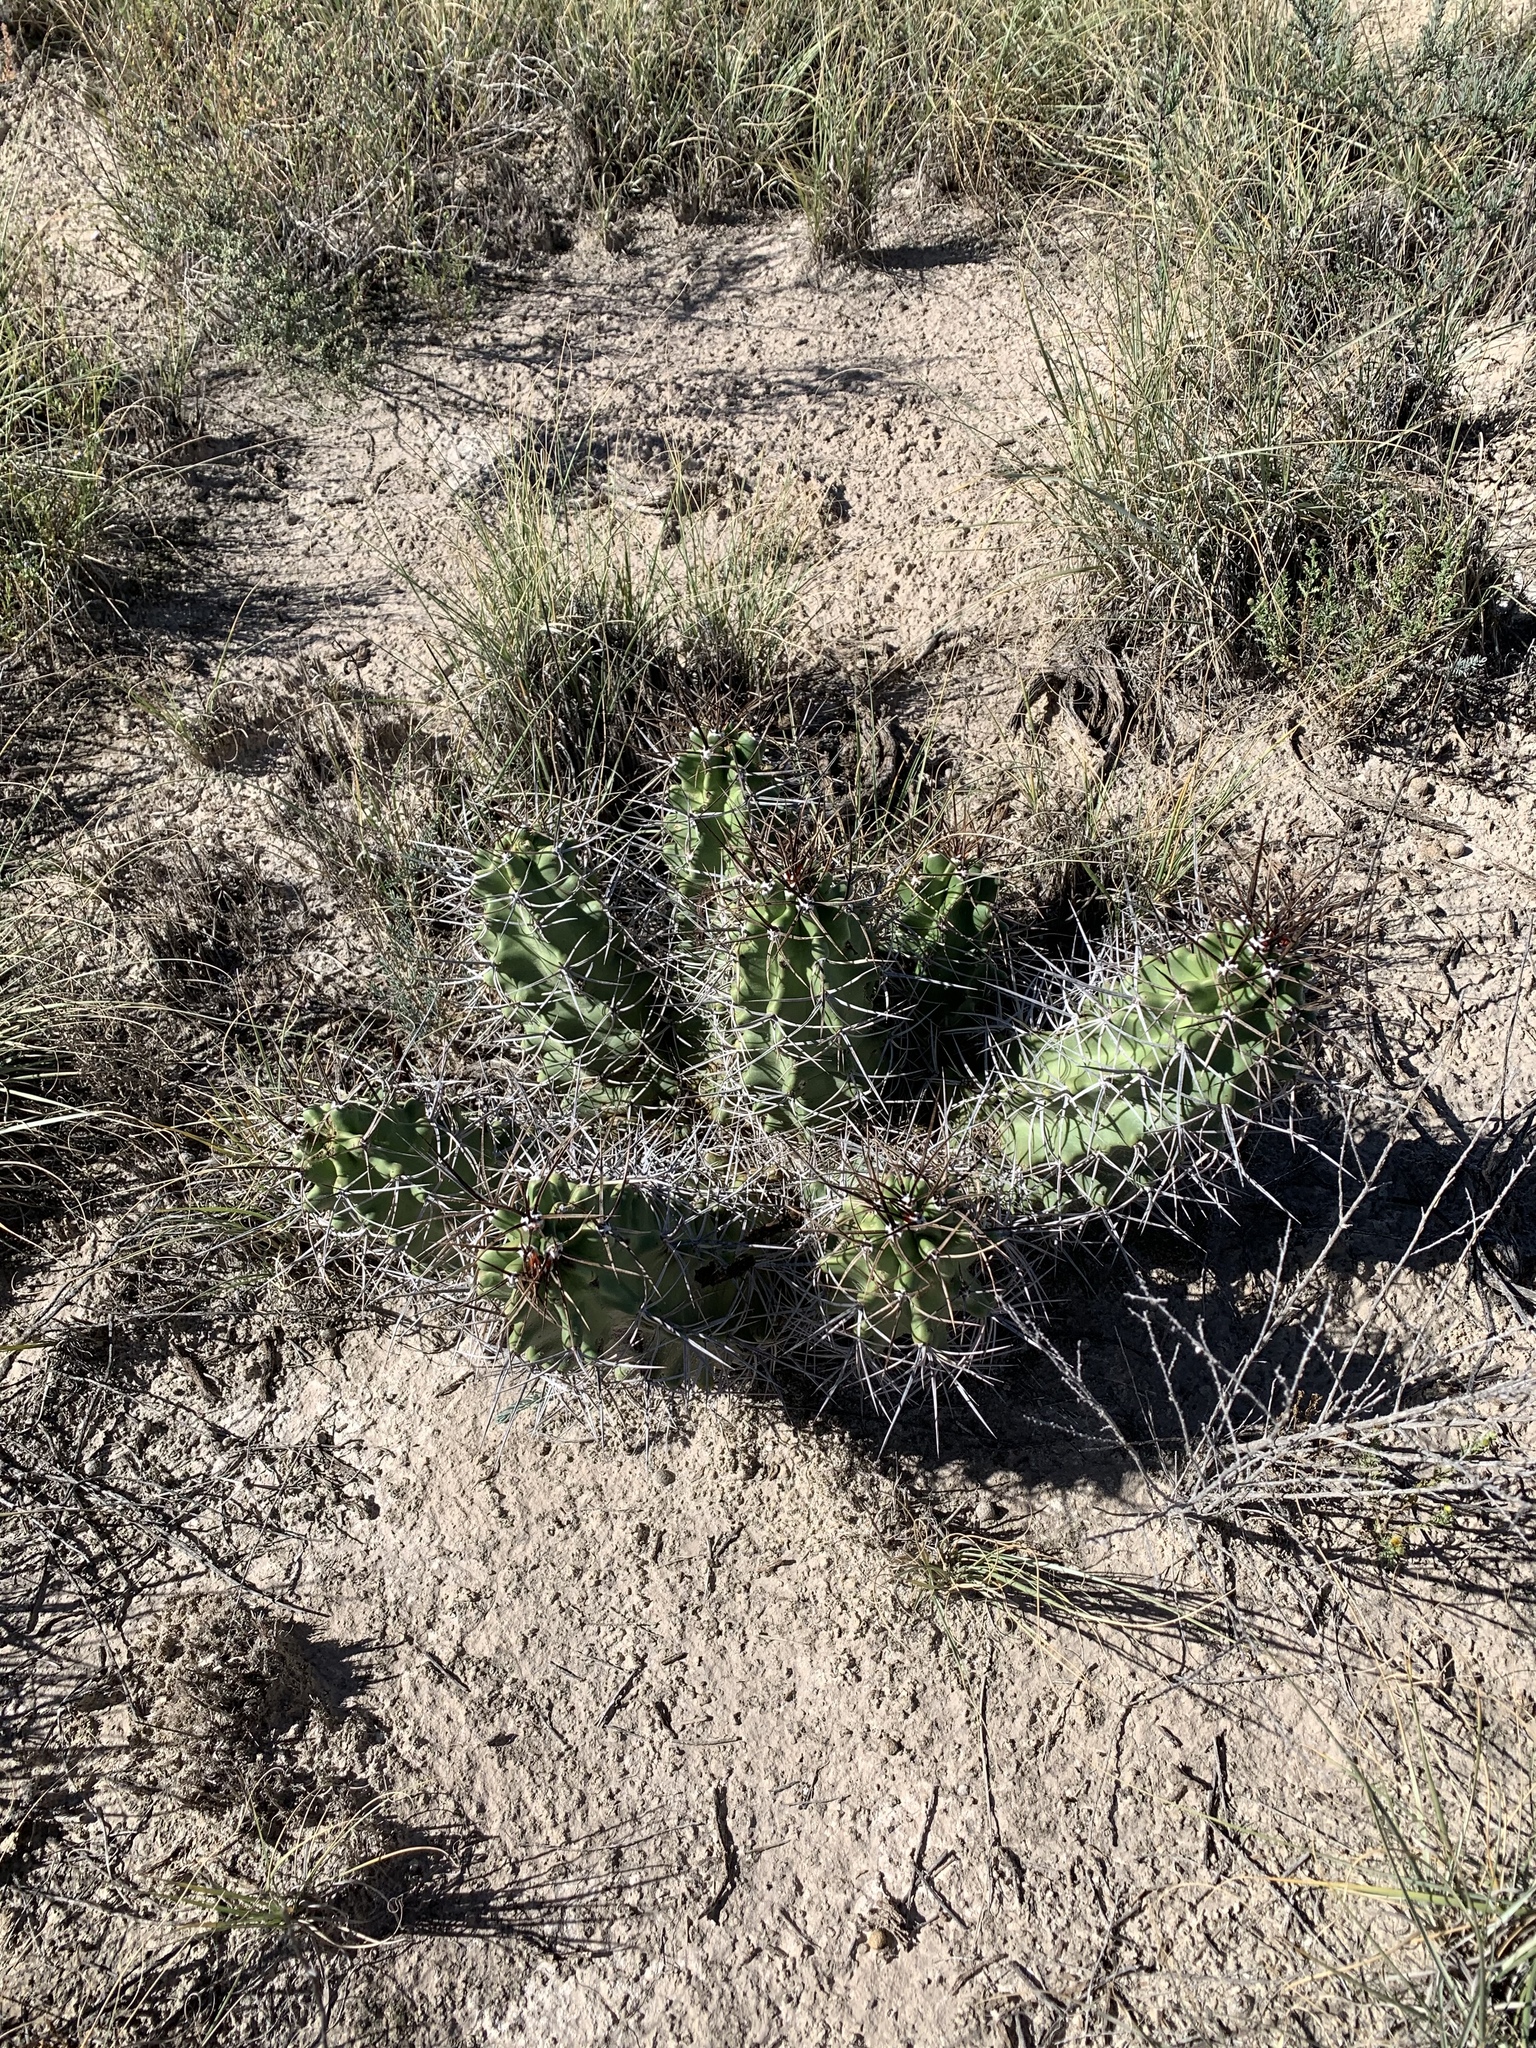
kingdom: Plantae
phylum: Tracheophyta
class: Magnoliopsida
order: Caryophyllales
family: Cactaceae
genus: Echinocereus
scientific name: Echinocereus triglochidiatus
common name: Claretcup hedgehog
